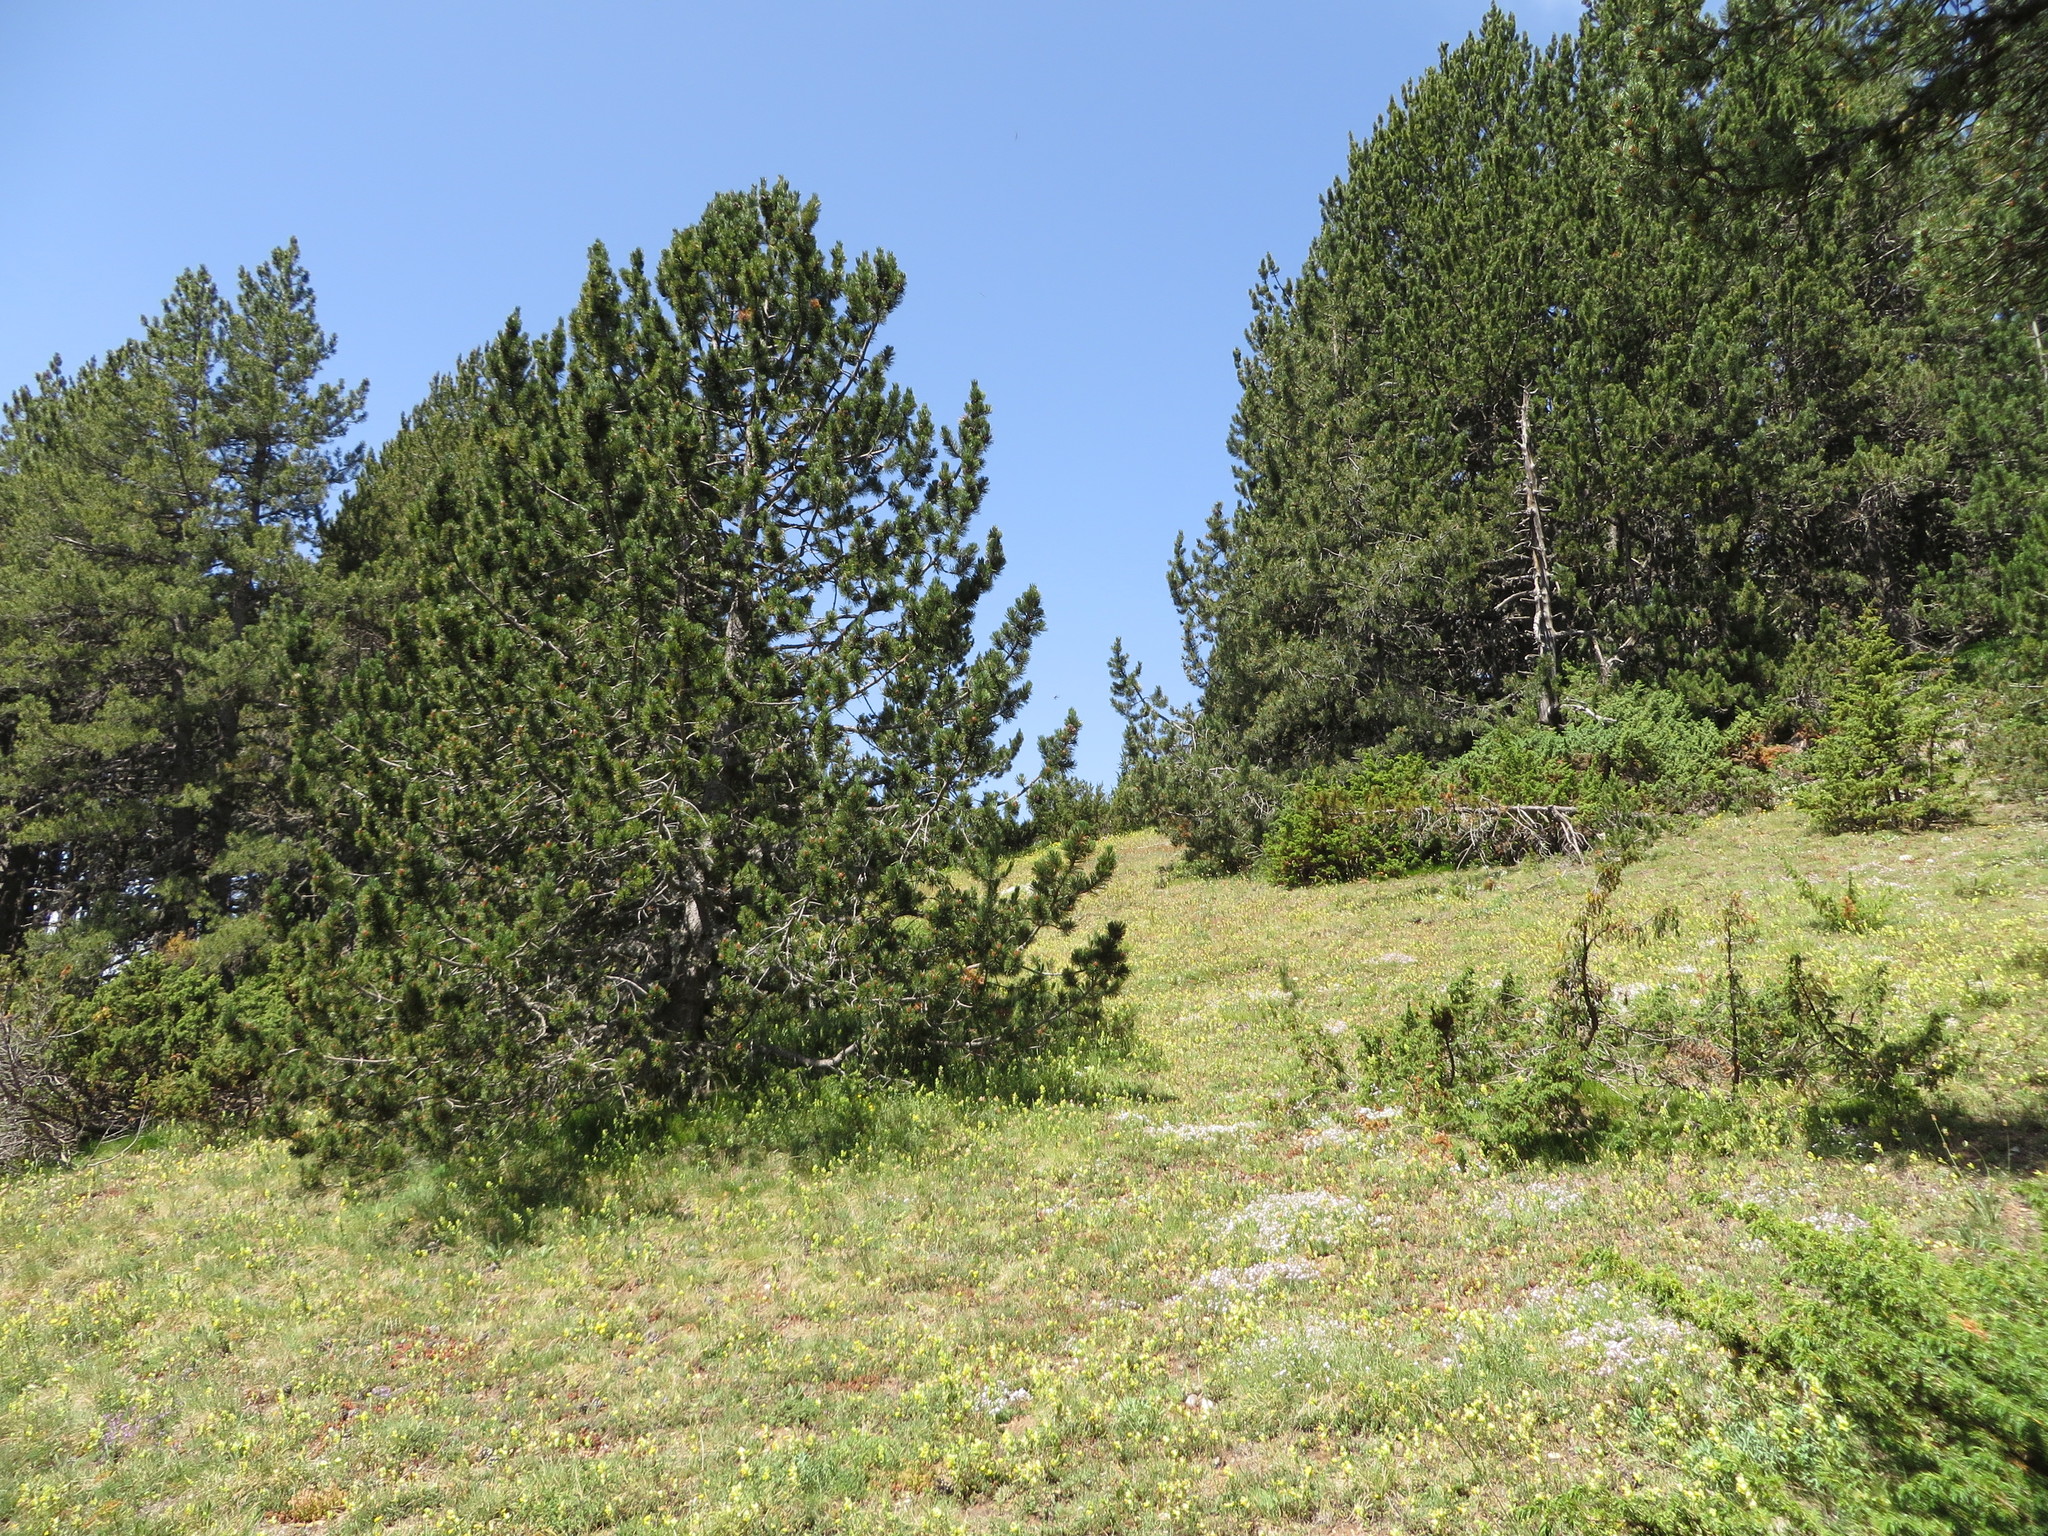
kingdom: Plantae
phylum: Tracheophyta
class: Pinopsida
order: Pinales
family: Pinaceae
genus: Pinus
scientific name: Pinus uncinata
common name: Mountain pine
